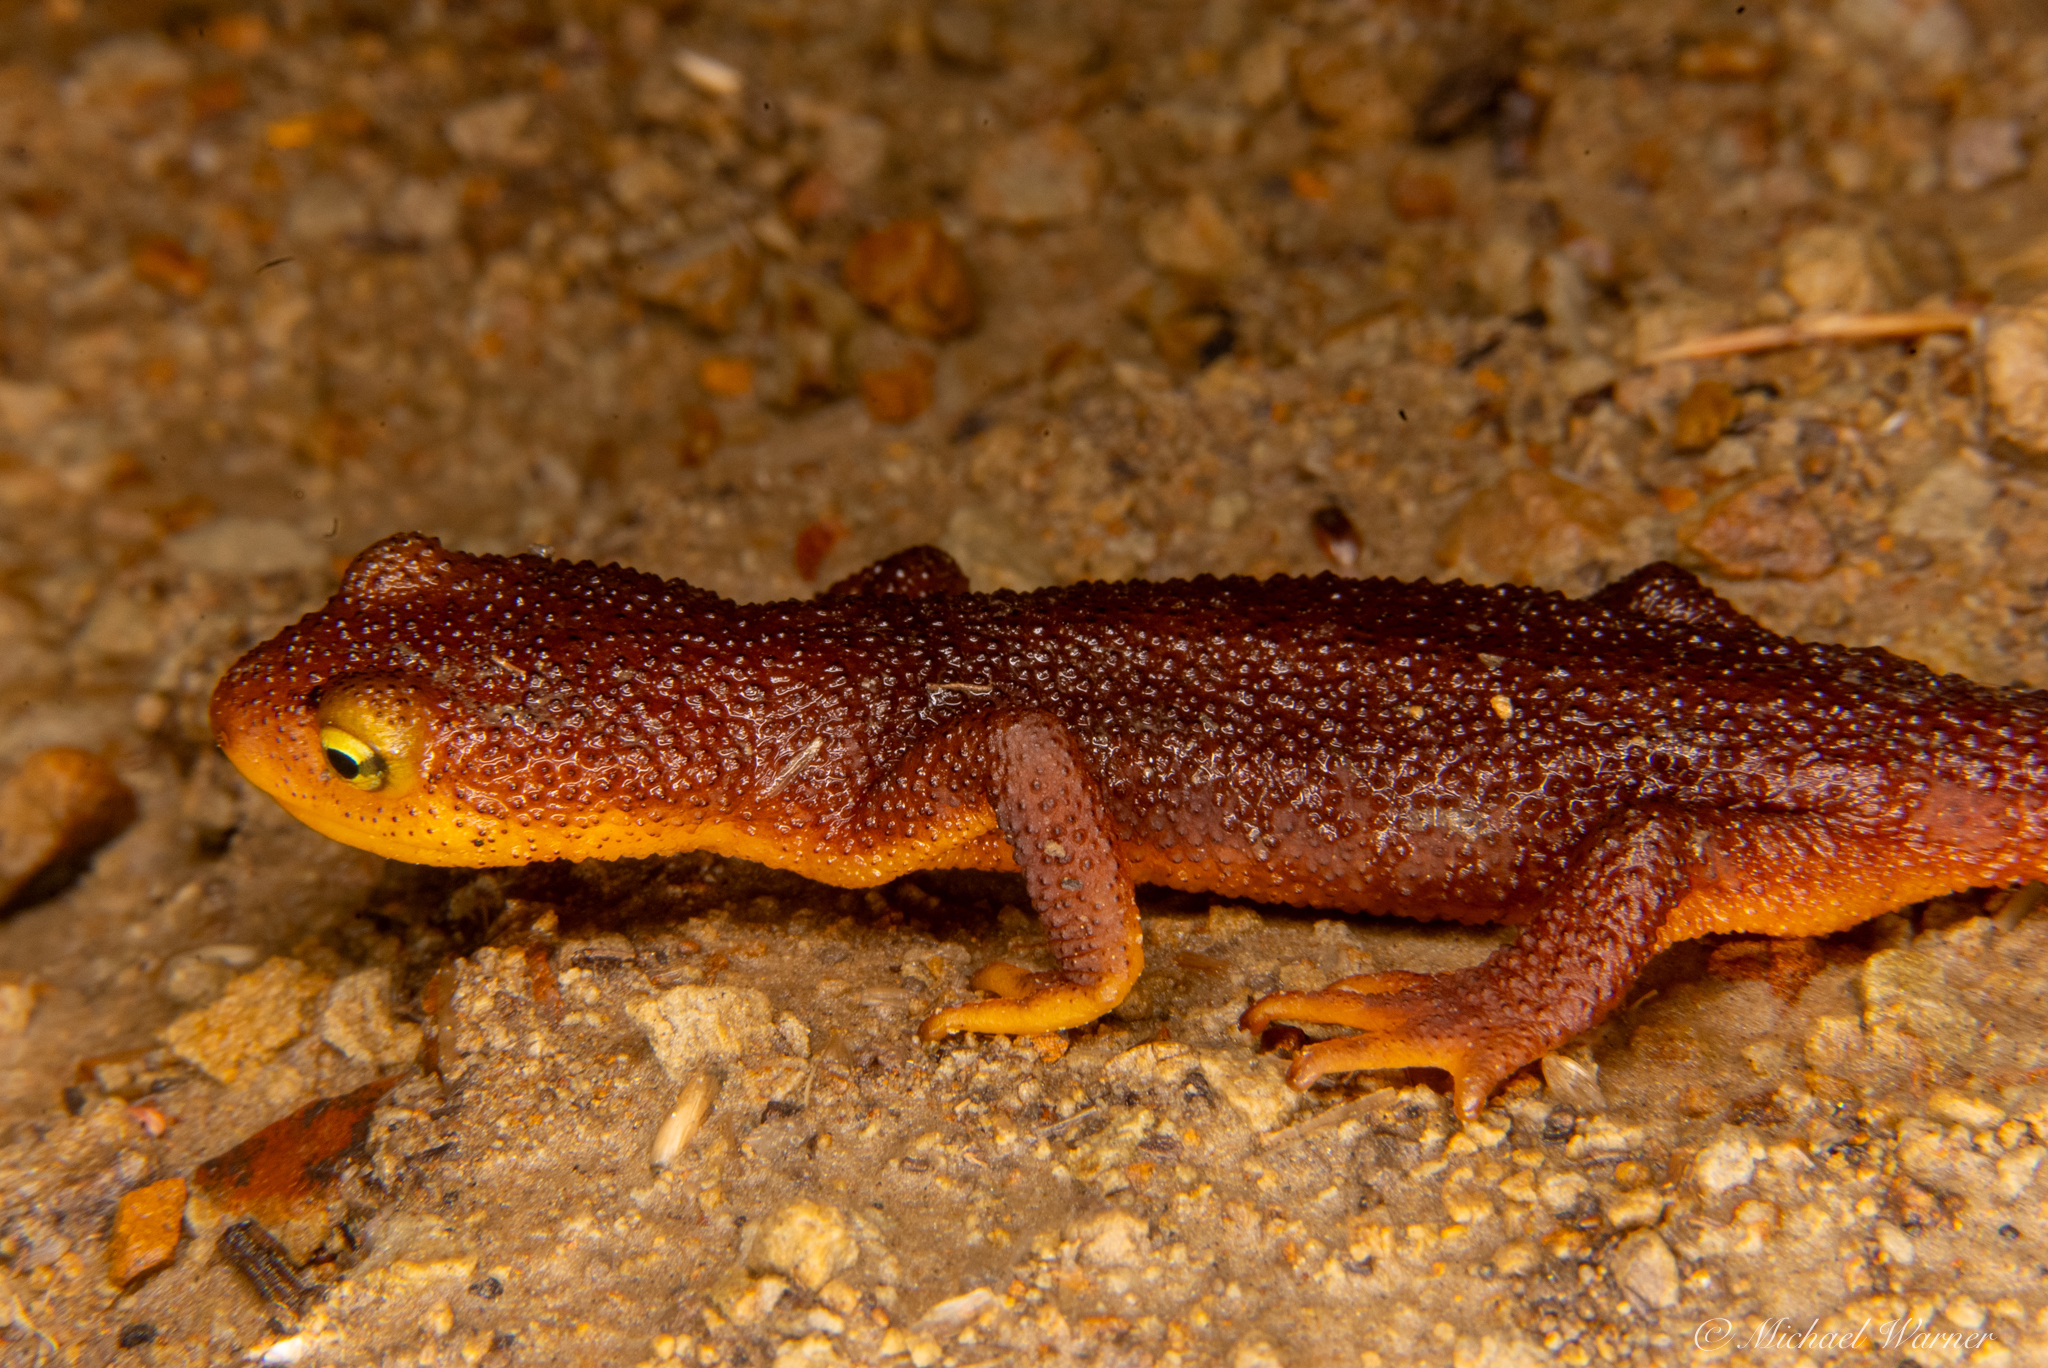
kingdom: Animalia
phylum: Chordata
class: Amphibia
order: Caudata
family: Salamandridae
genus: Taricha
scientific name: Taricha torosa
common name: California newt
